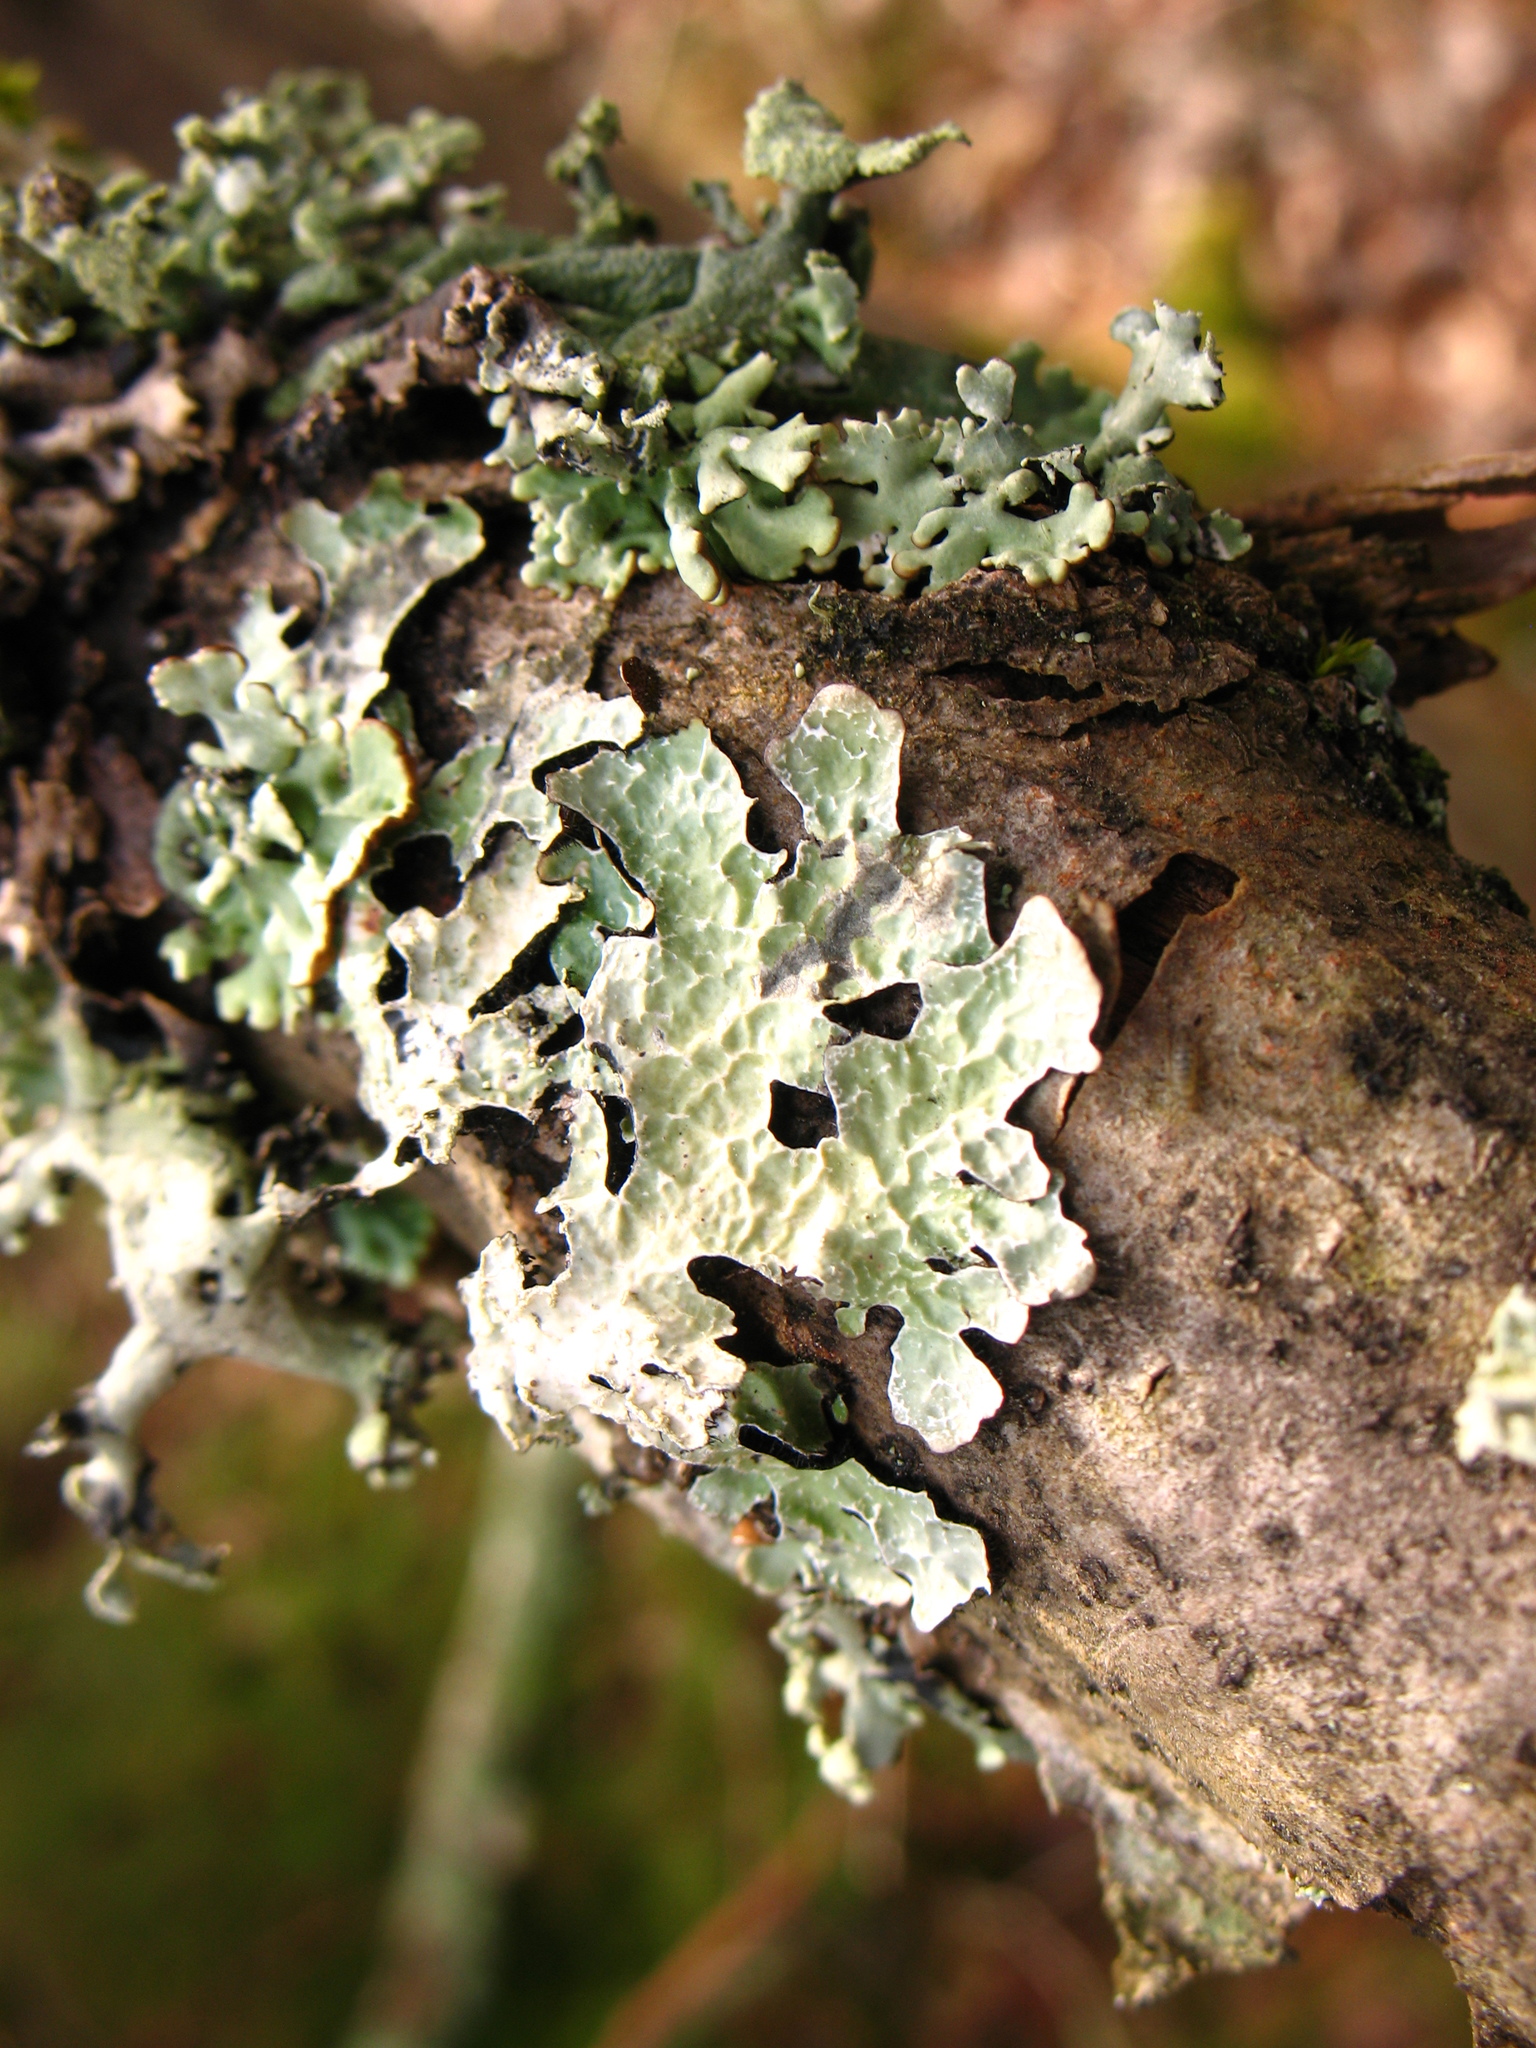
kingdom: Fungi
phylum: Ascomycota
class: Lecanoromycetes
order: Lecanorales
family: Parmeliaceae
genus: Parmelia
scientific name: Parmelia sulcata
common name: Netted shield lichen
